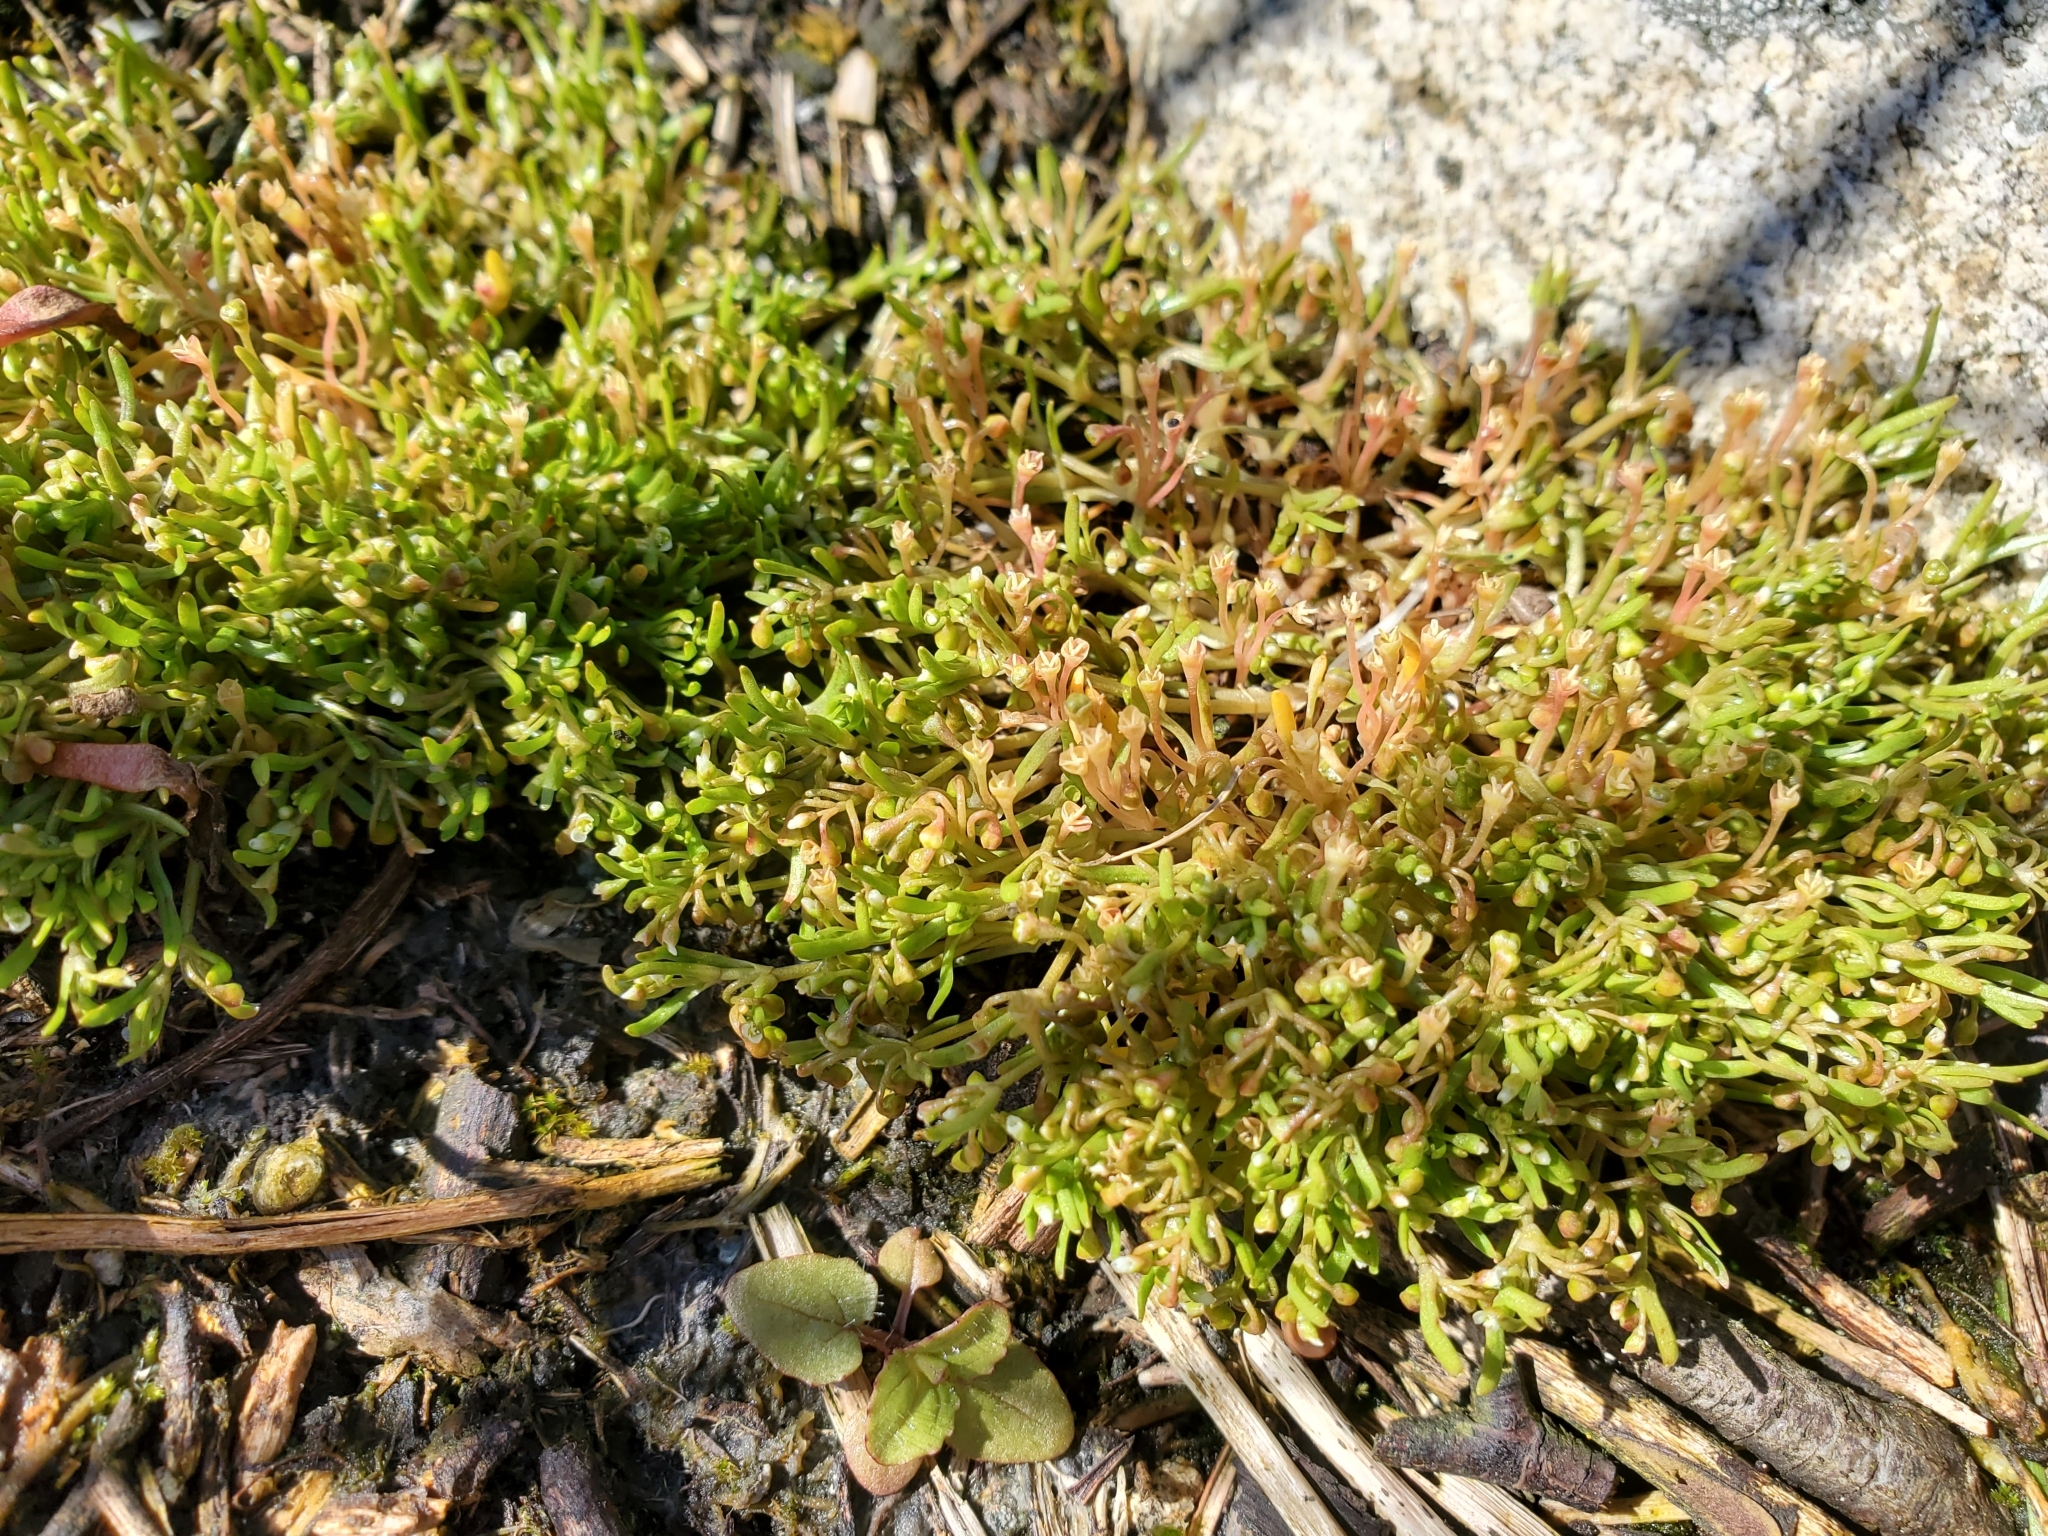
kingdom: Plantae
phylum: Tracheophyta
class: Magnoliopsida
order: Caryophyllales
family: Montiaceae
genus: Montia
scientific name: Montia howellii
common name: Howell's miner's-lettuce
